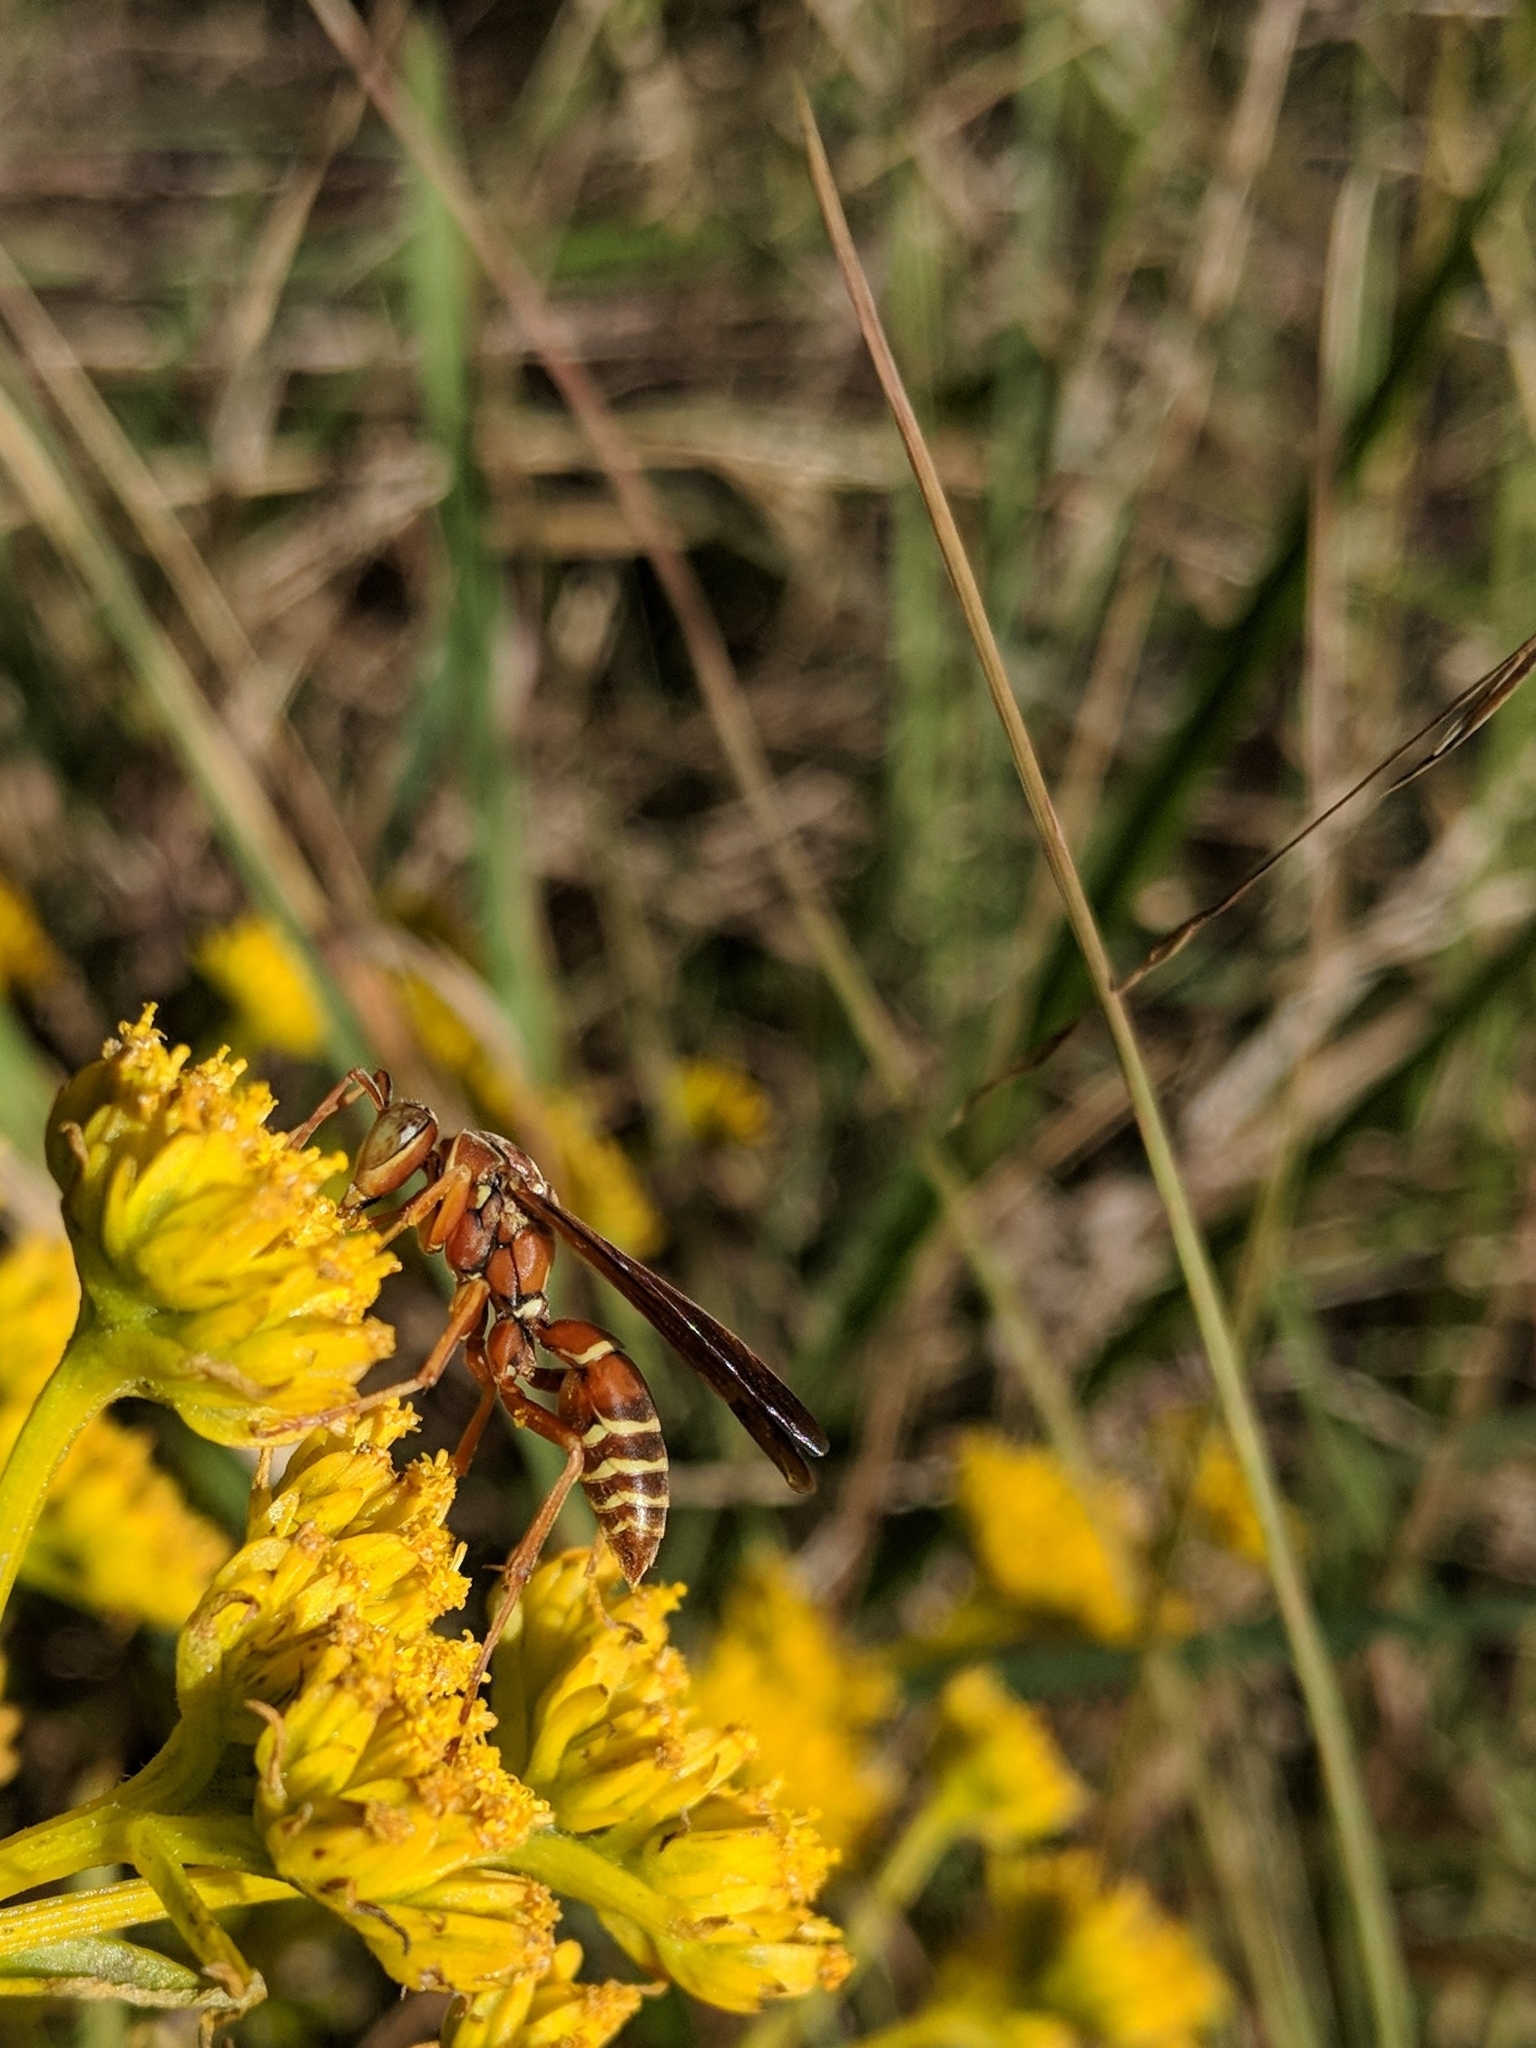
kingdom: Animalia
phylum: Arthropoda
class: Insecta
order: Hymenoptera
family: Eumenidae
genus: Polistes
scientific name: Polistes bellicosus
